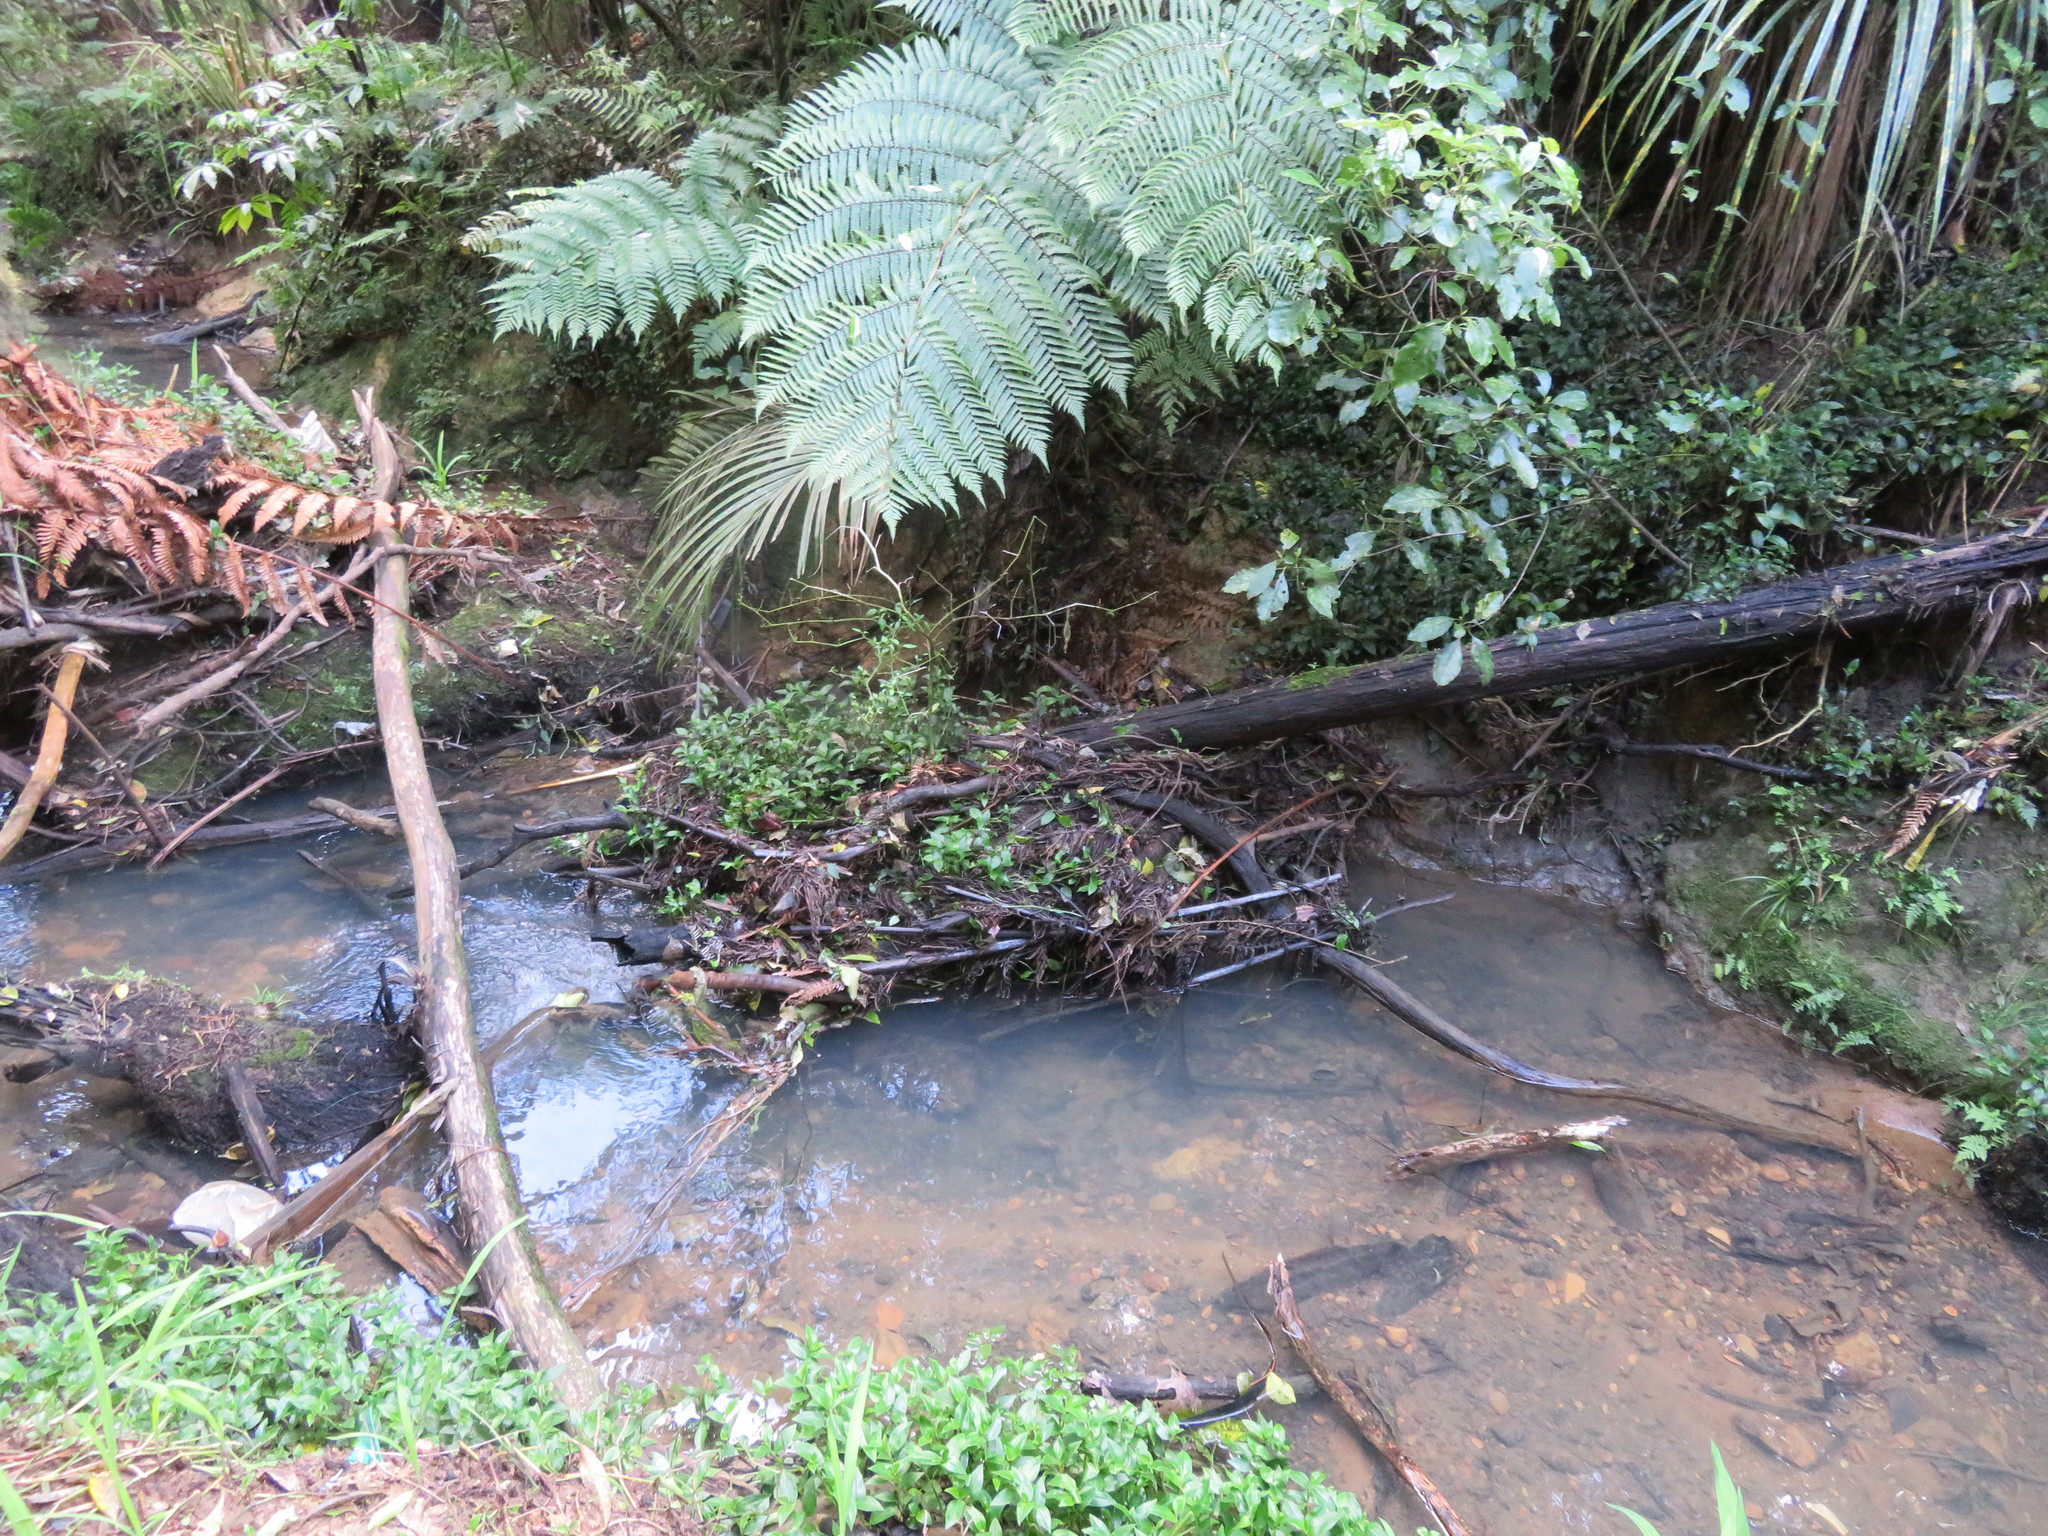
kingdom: Plantae
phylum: Tracheophyta
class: Liliopsida
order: Commelinales
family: Commelinaceae
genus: Tradescantia
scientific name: Tradescantia fluminensis
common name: Wandering-jew
